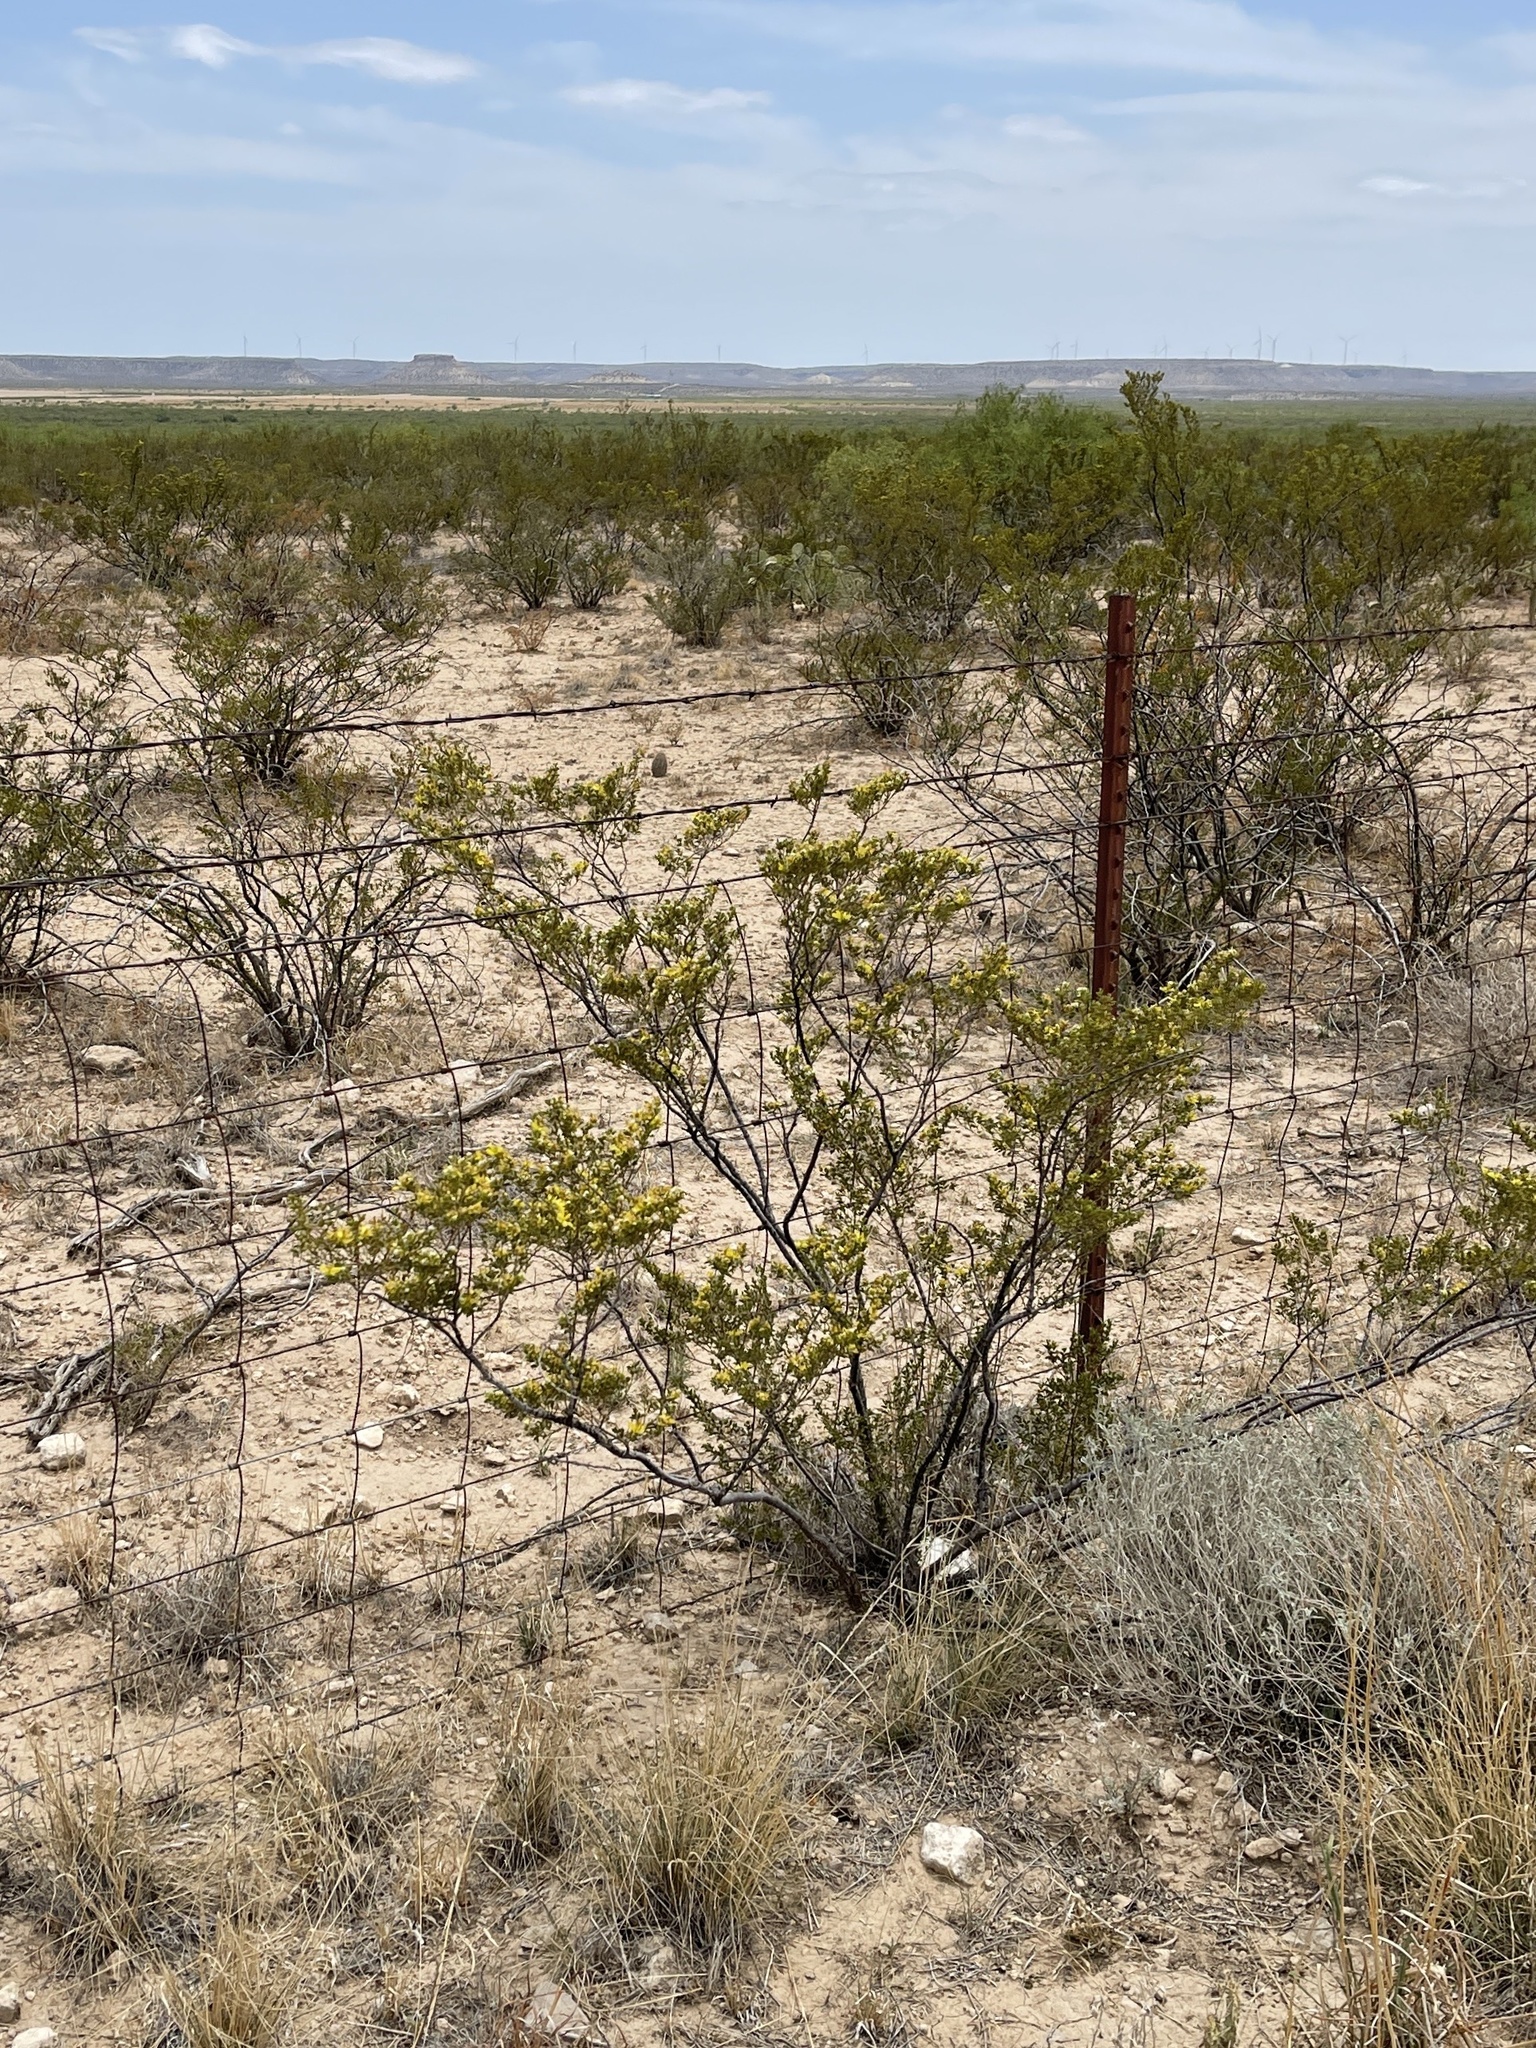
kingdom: Plantae
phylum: Tracheophyta
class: Magnoliopsida
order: Zygophyllales
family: Zygophyllaceae
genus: Larrea
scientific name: Larrea tridentata
